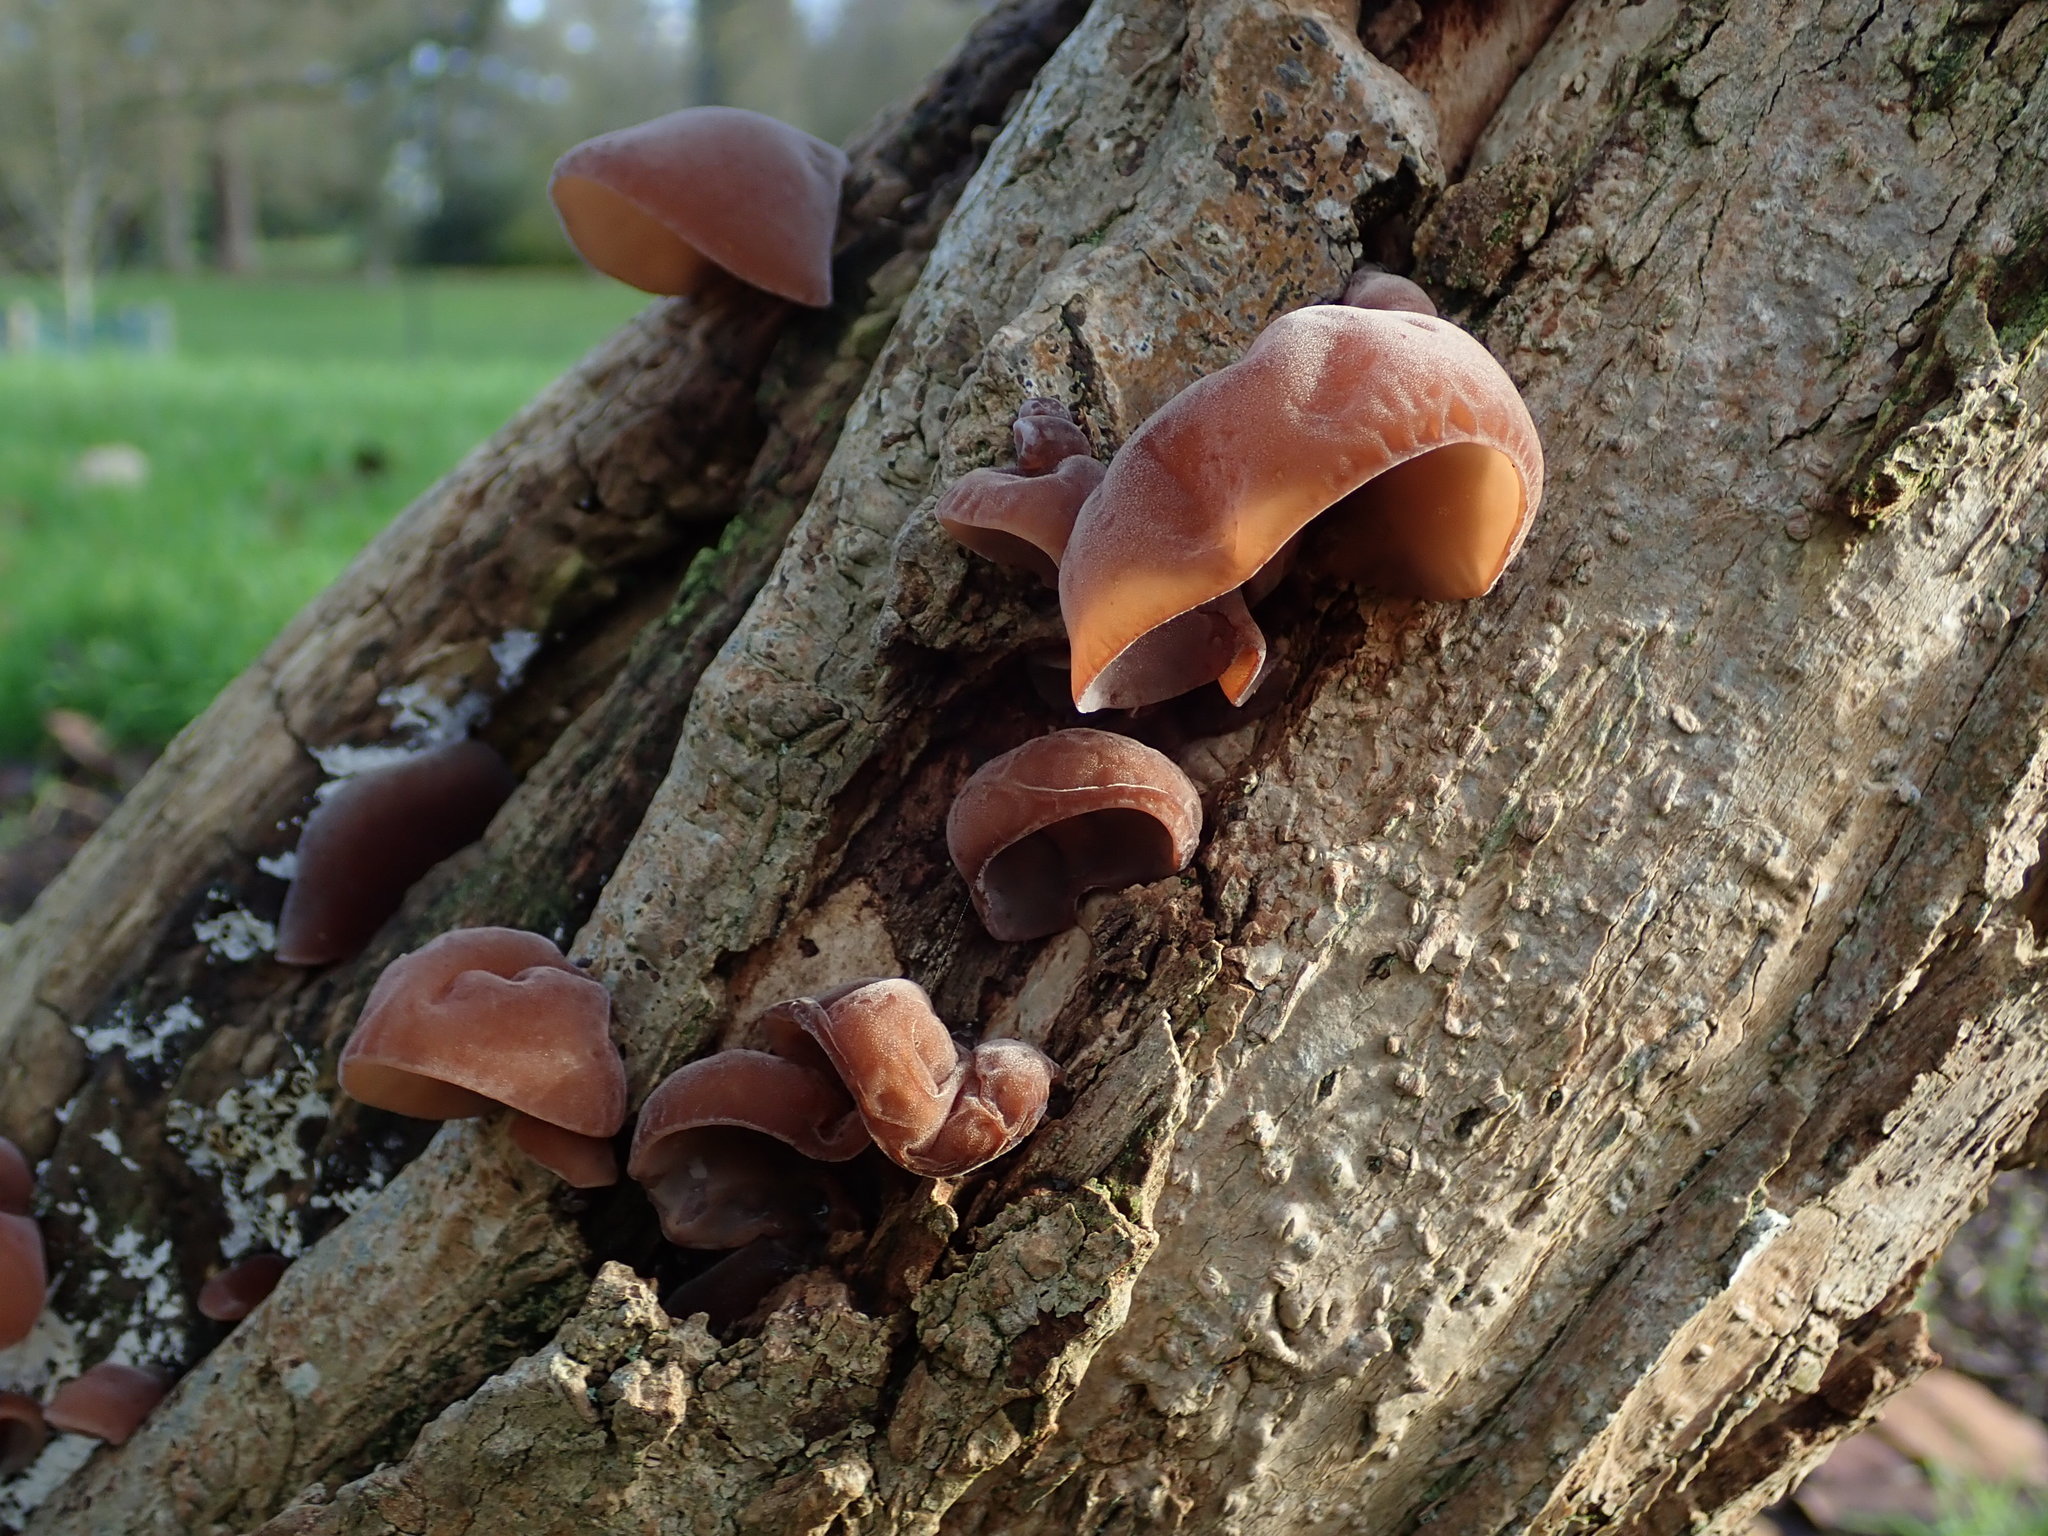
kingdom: Fungi
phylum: Basidiomycota
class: Agaricomycetes
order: Auriculariales
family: Auriculariaceae
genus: Auricularia
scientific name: Auricularia auricula-judae
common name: Jelly ear
